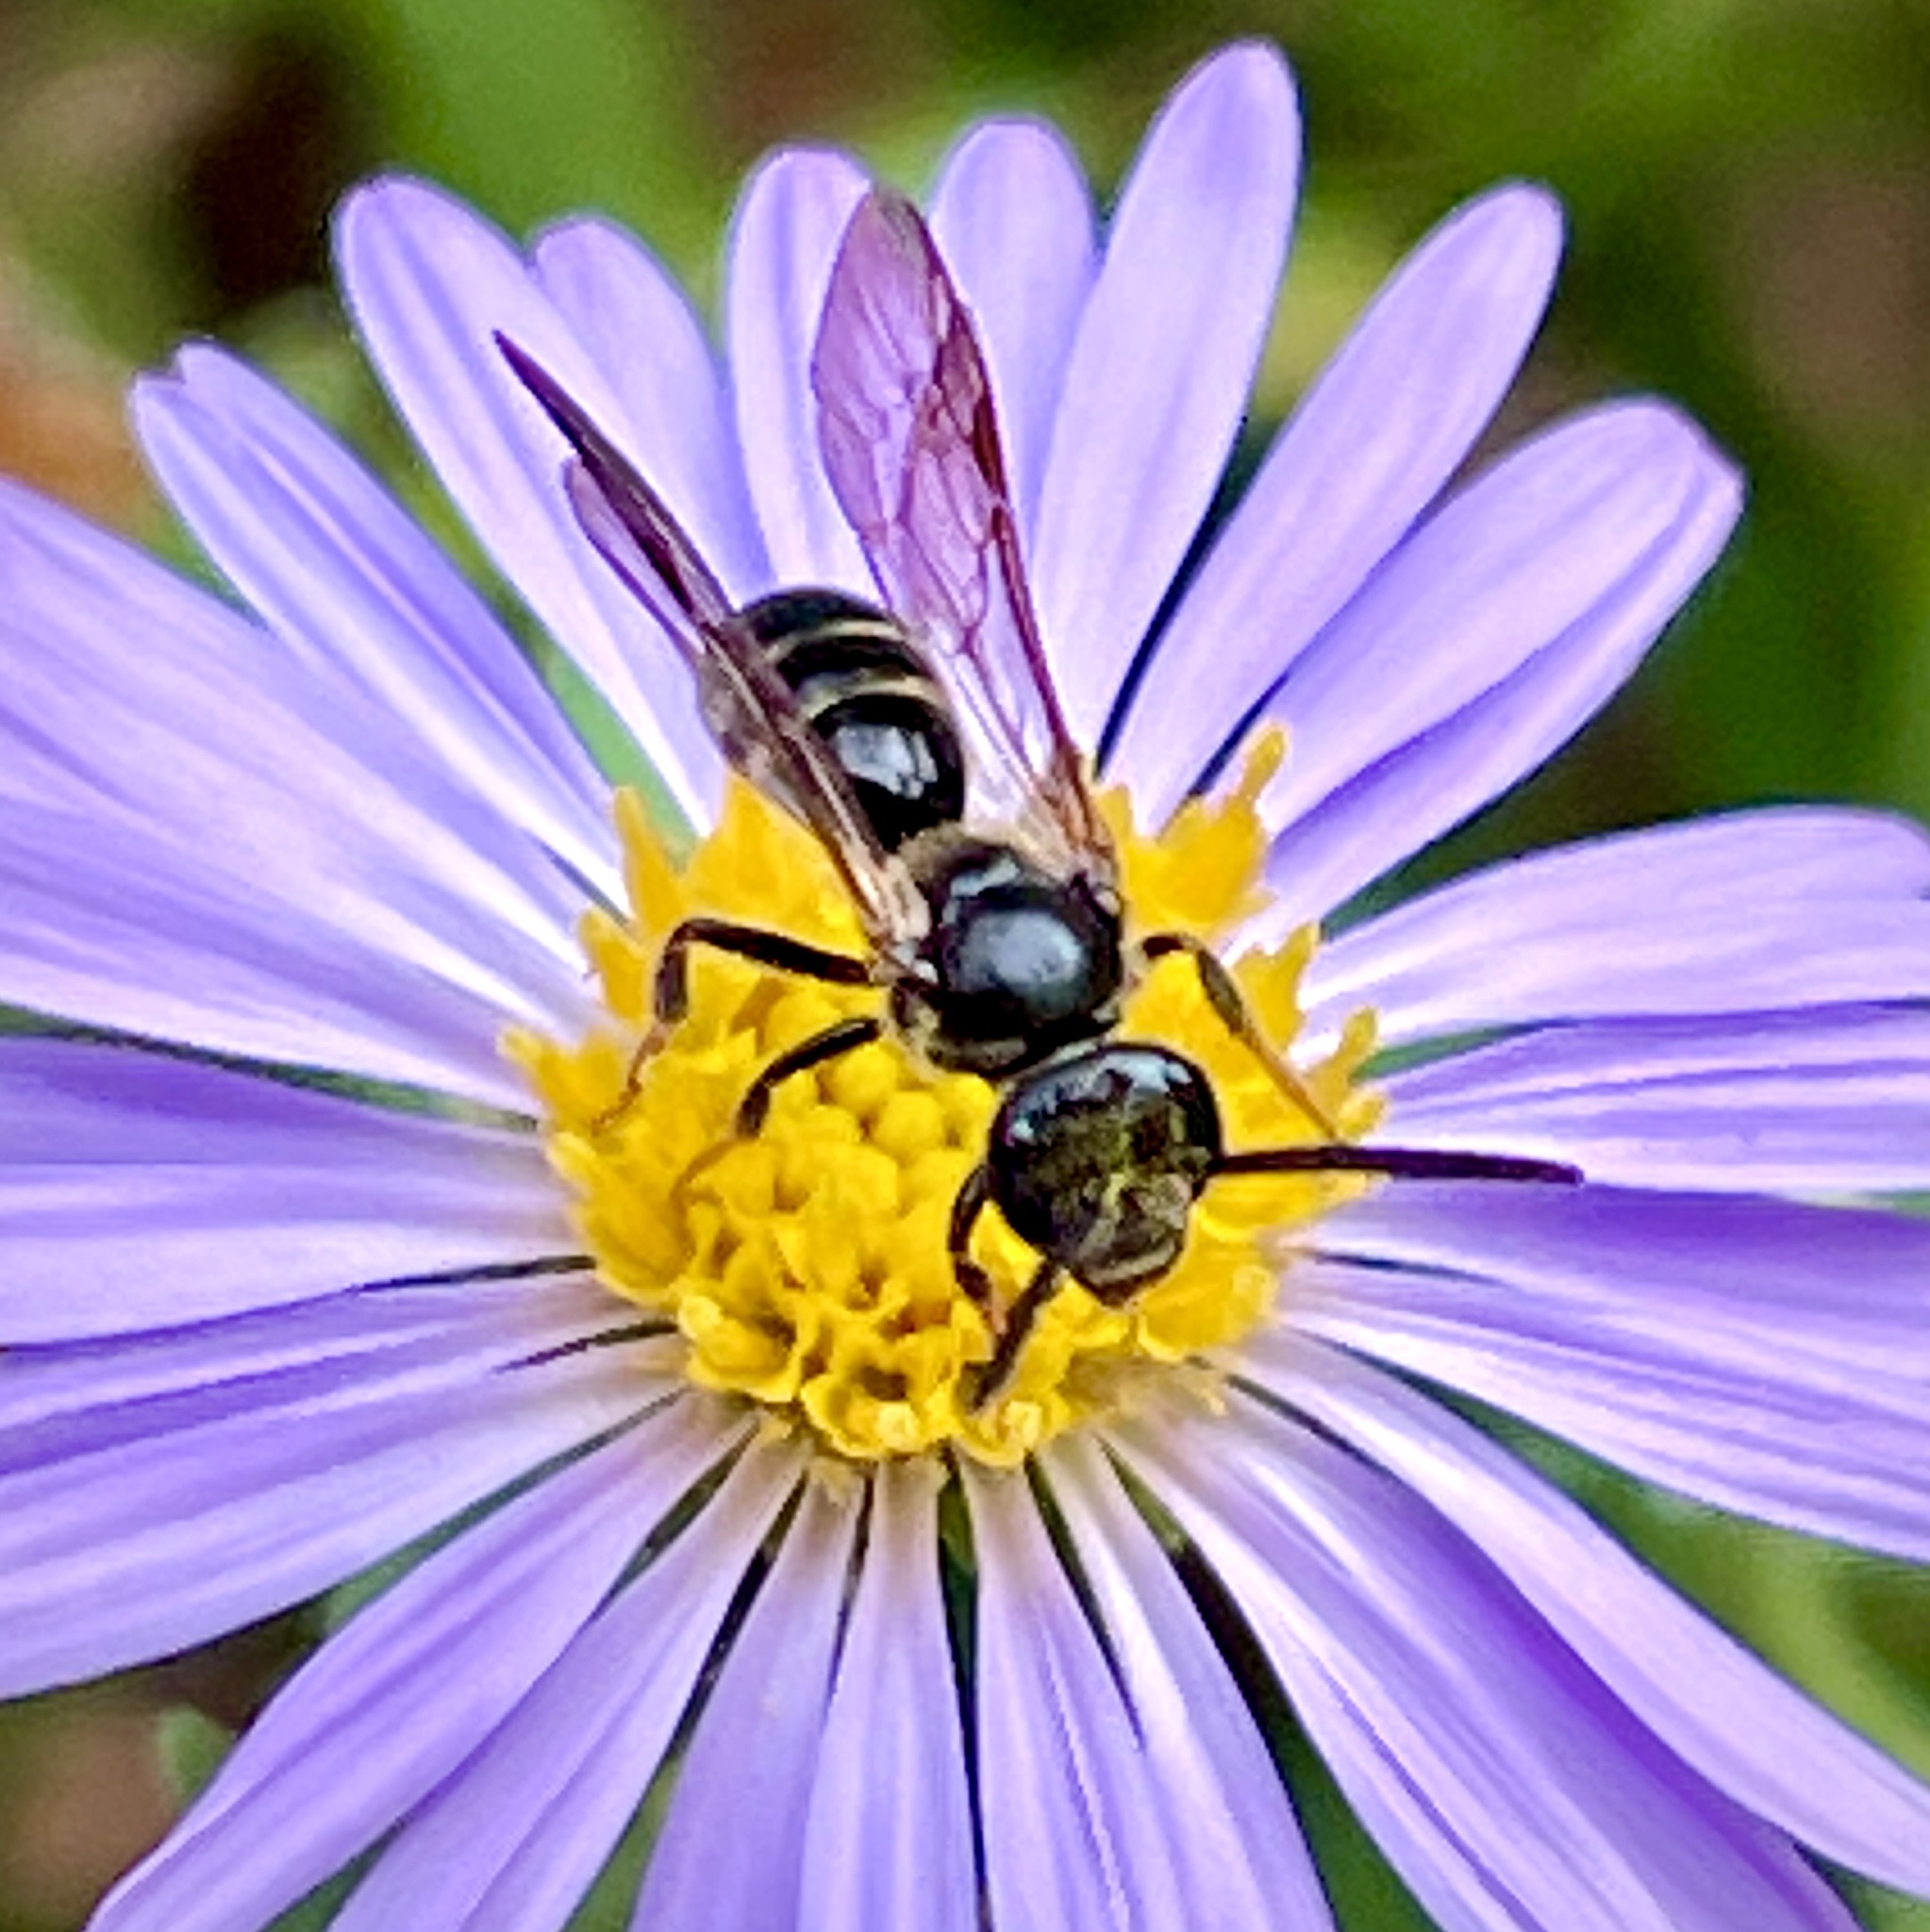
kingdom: Animalia
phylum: Arthropoda
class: Insecta
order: Hymenoptera
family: Halictidae
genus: Lasioglossum
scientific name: Lasioglossum fuscipenne
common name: Brown-winged sweat bee
